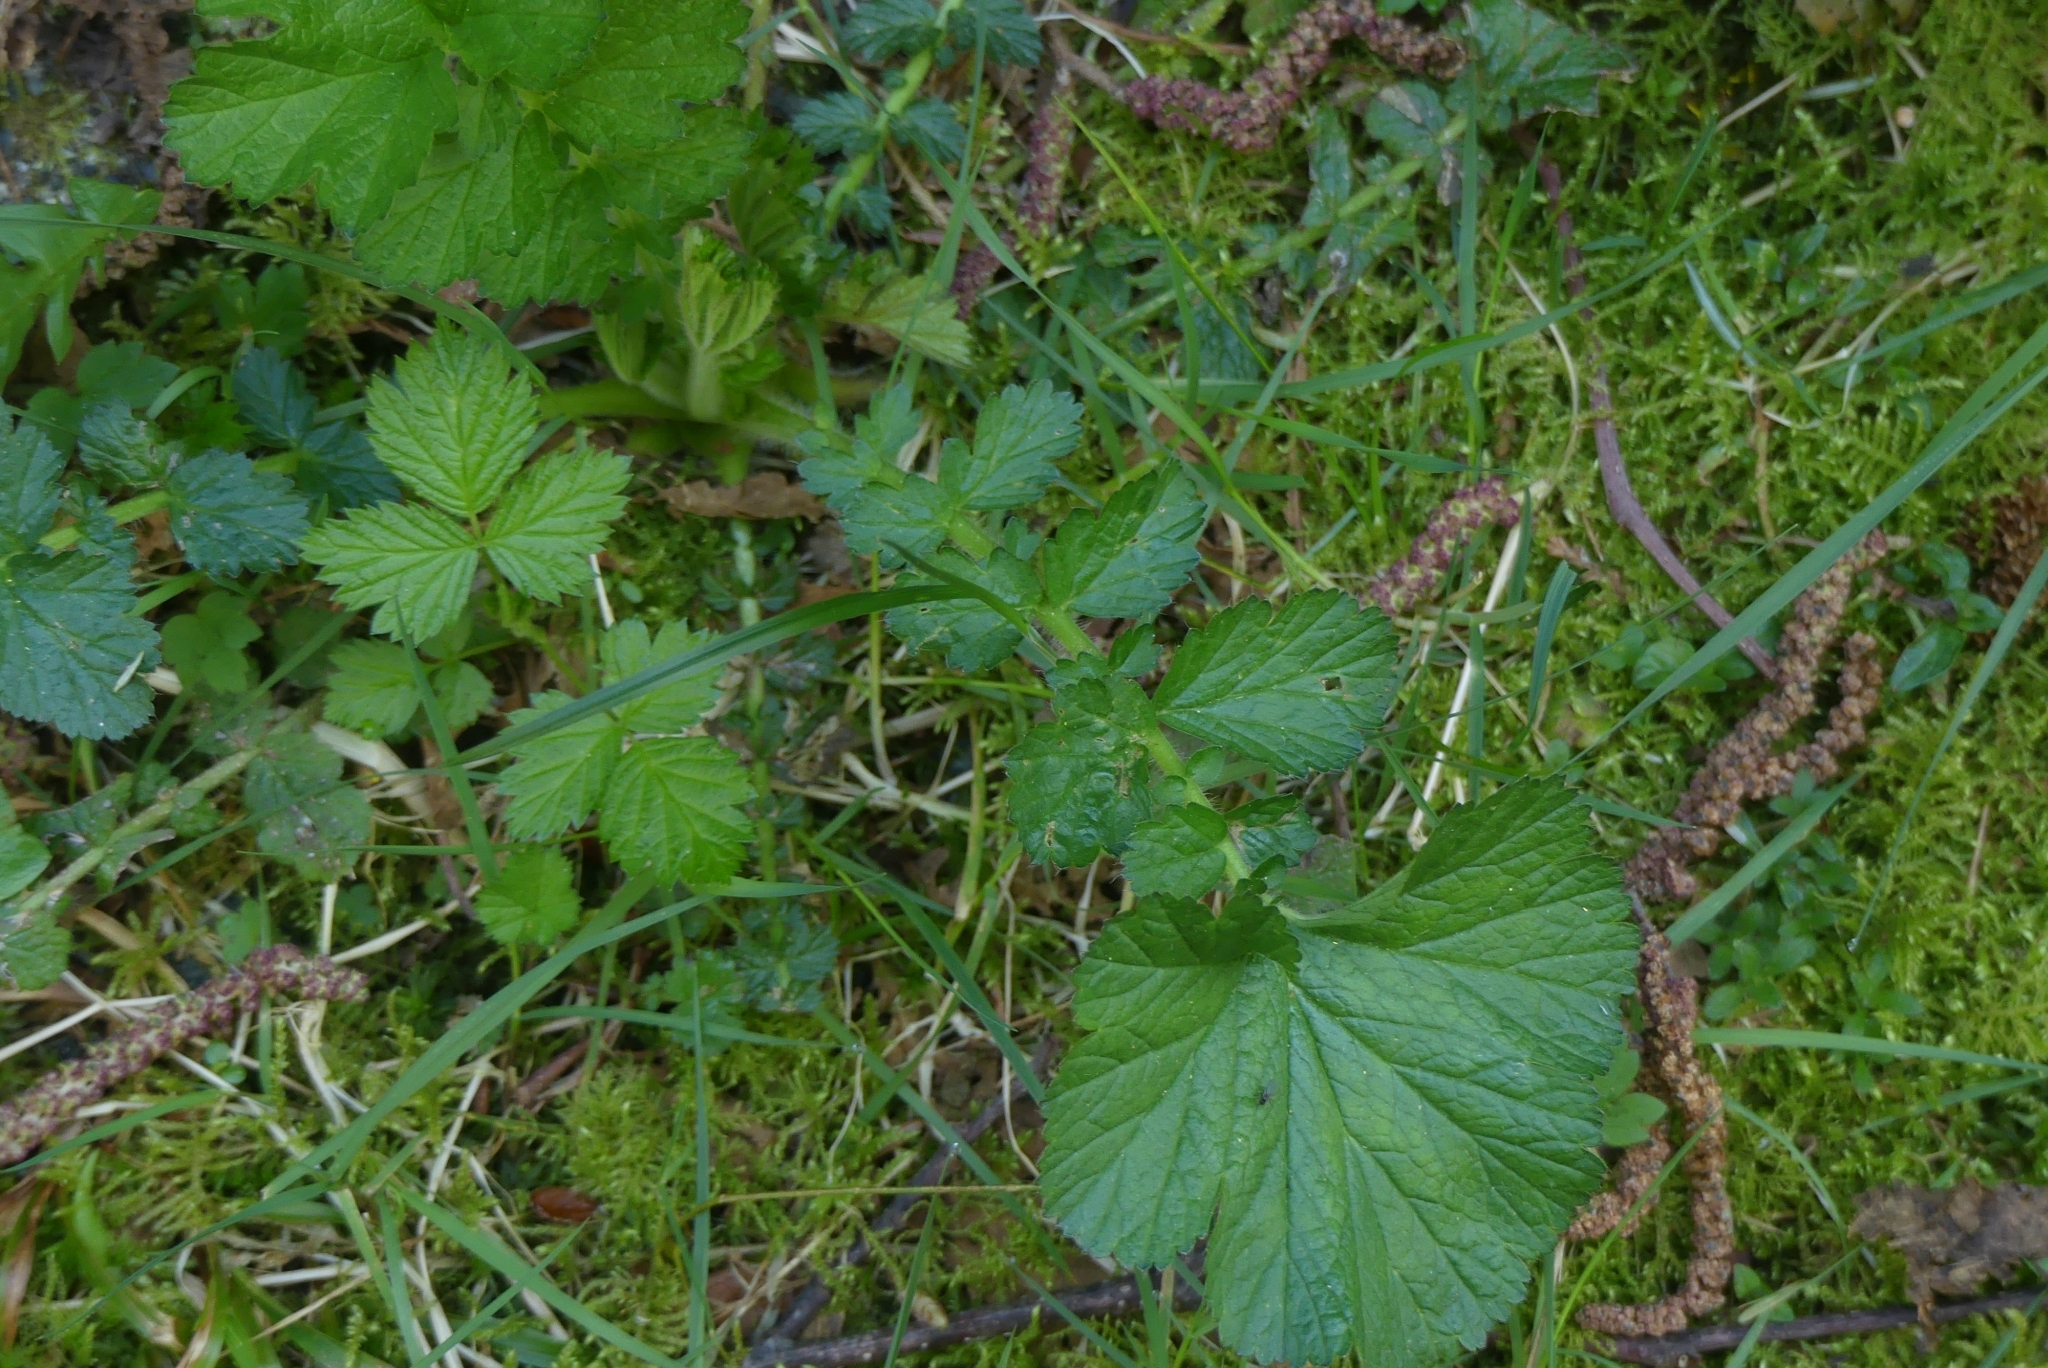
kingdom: Plantae
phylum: Tracheophyta
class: Magnoliopsida
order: Rosales
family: Rosaceae
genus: Geum
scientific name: Geum macrophyllum
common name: Large-leaved avens
